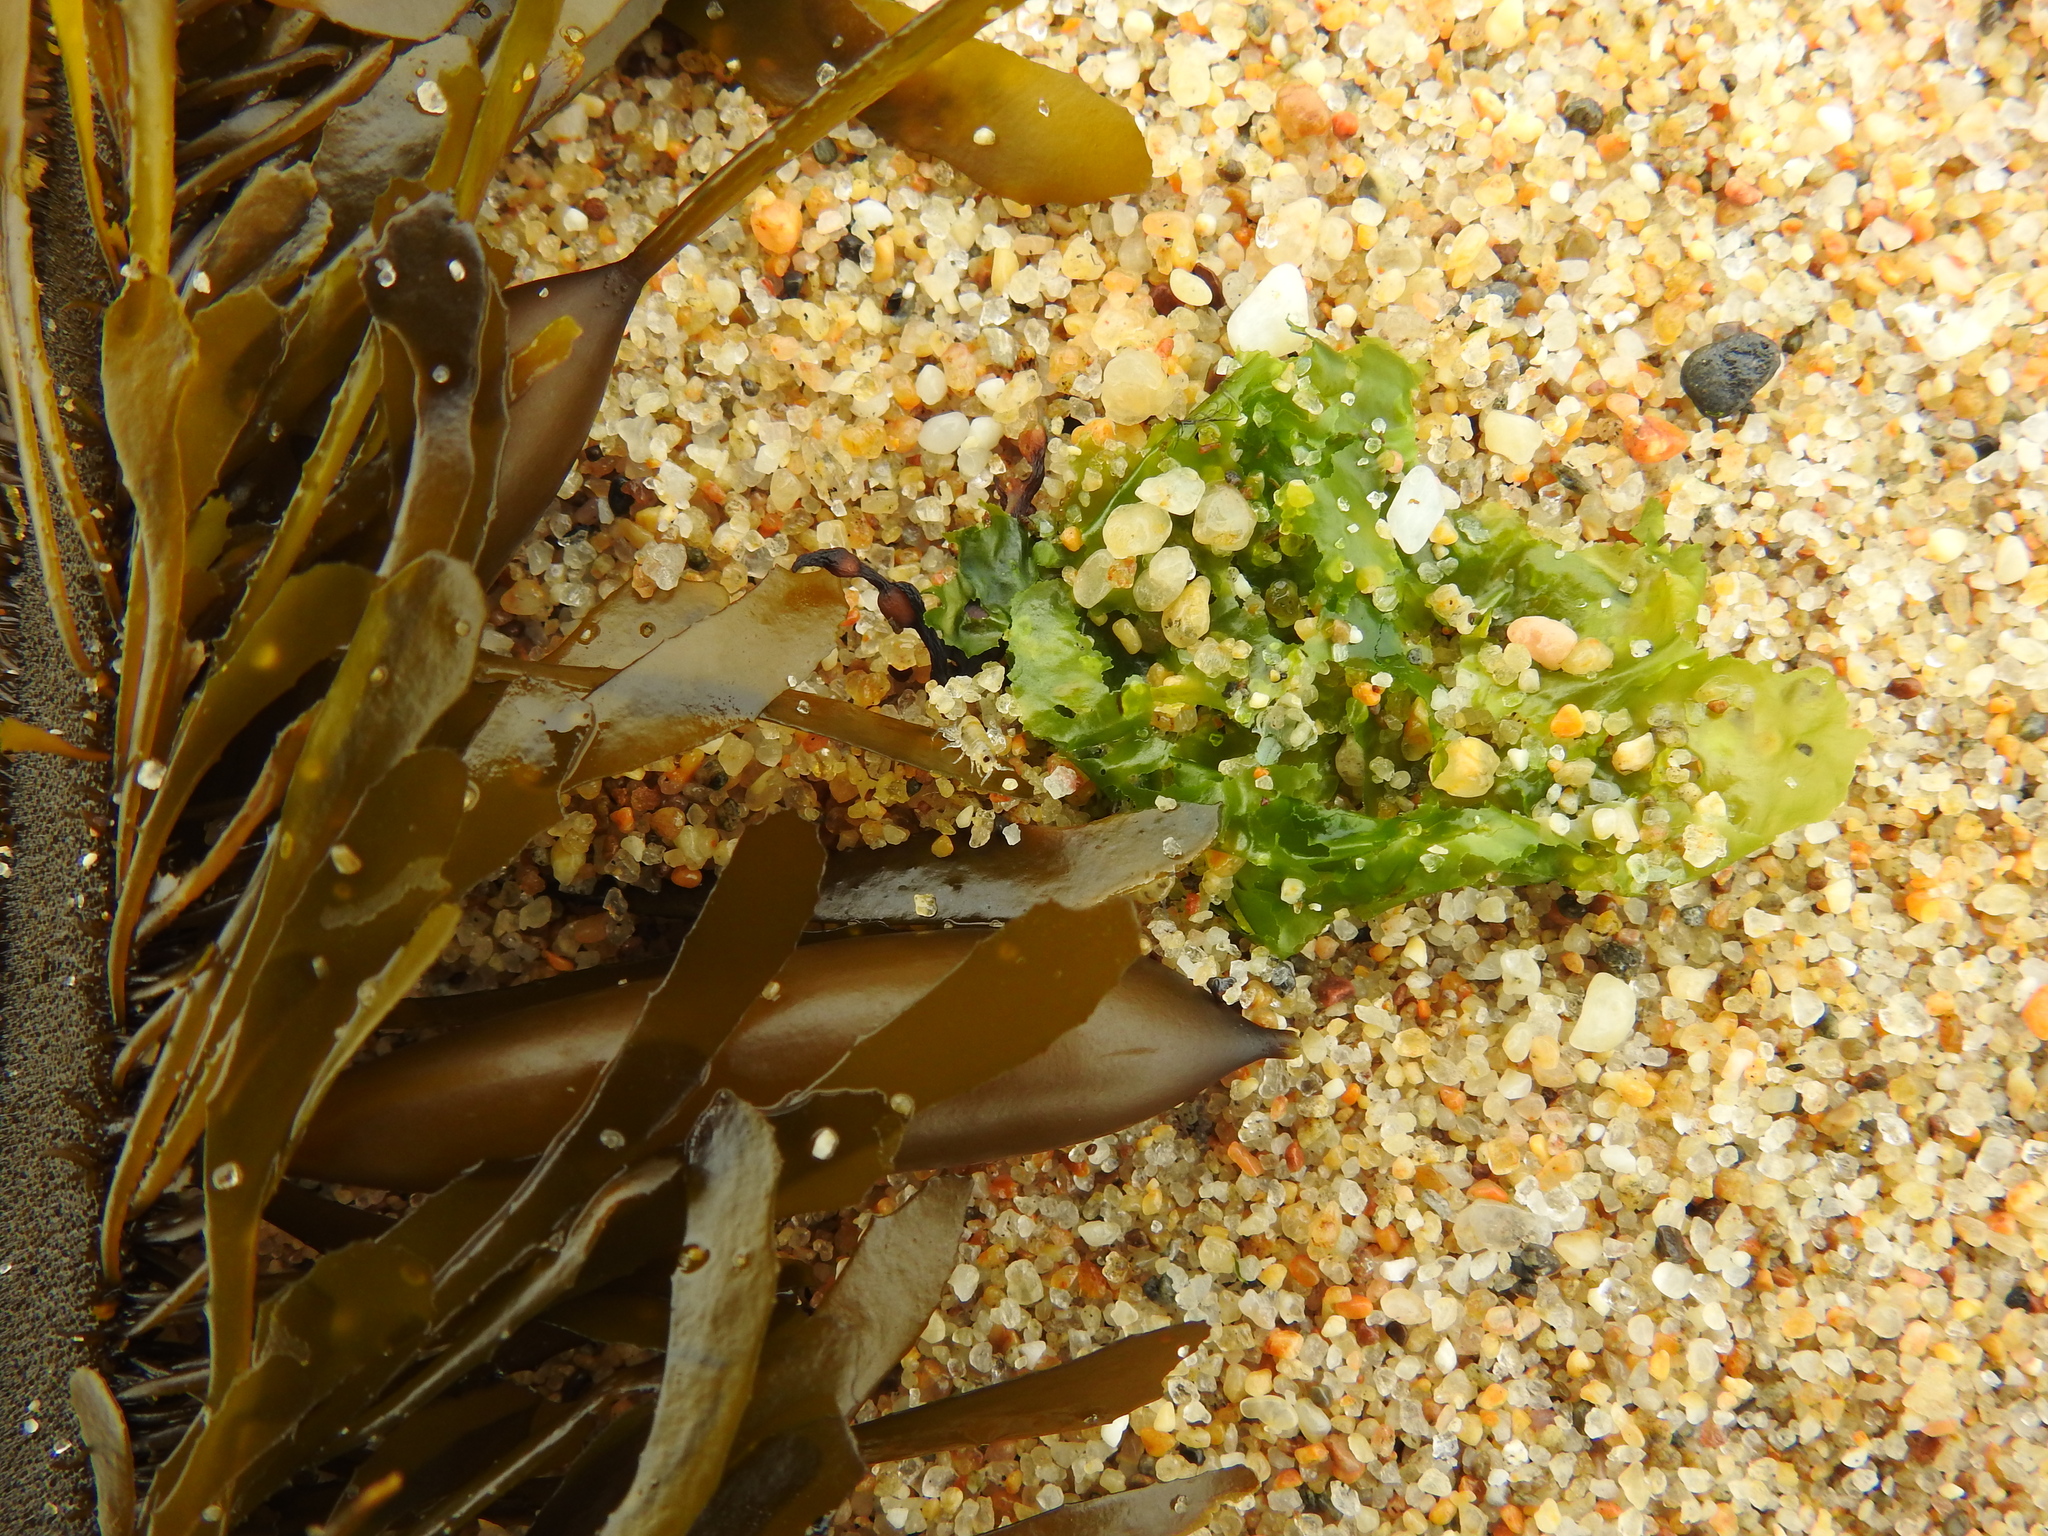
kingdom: Animalia
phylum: Arthropoda
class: Malacostraca
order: Amphipoda
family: Talitridae
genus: Megalorchestia
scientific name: Megalorchestia columbiana
